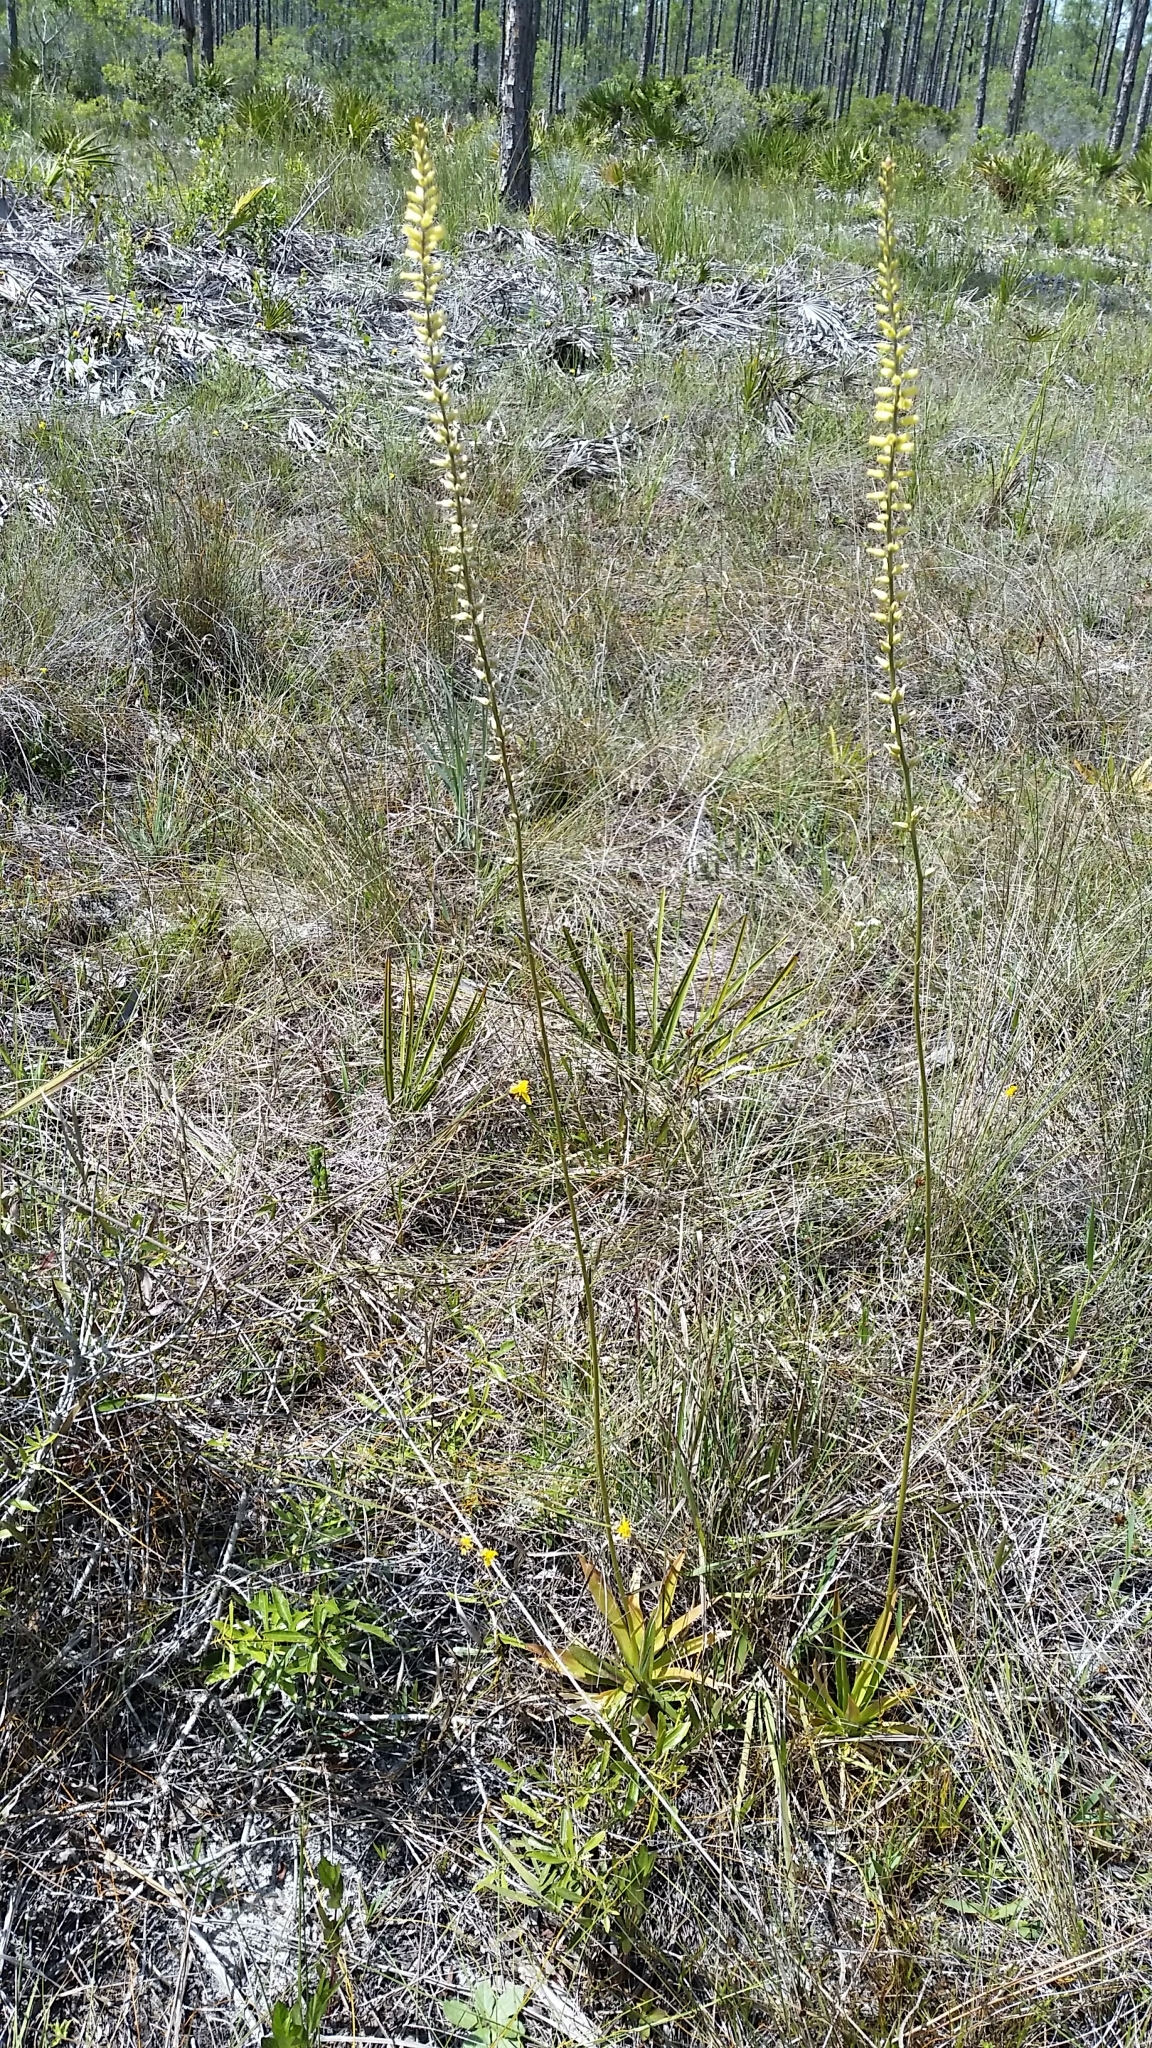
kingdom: Plantae
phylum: Tracheophyta
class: Liliopsida
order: Dioscoreales
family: Nartheciaceae
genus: Aletris
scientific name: Aletris lutea
